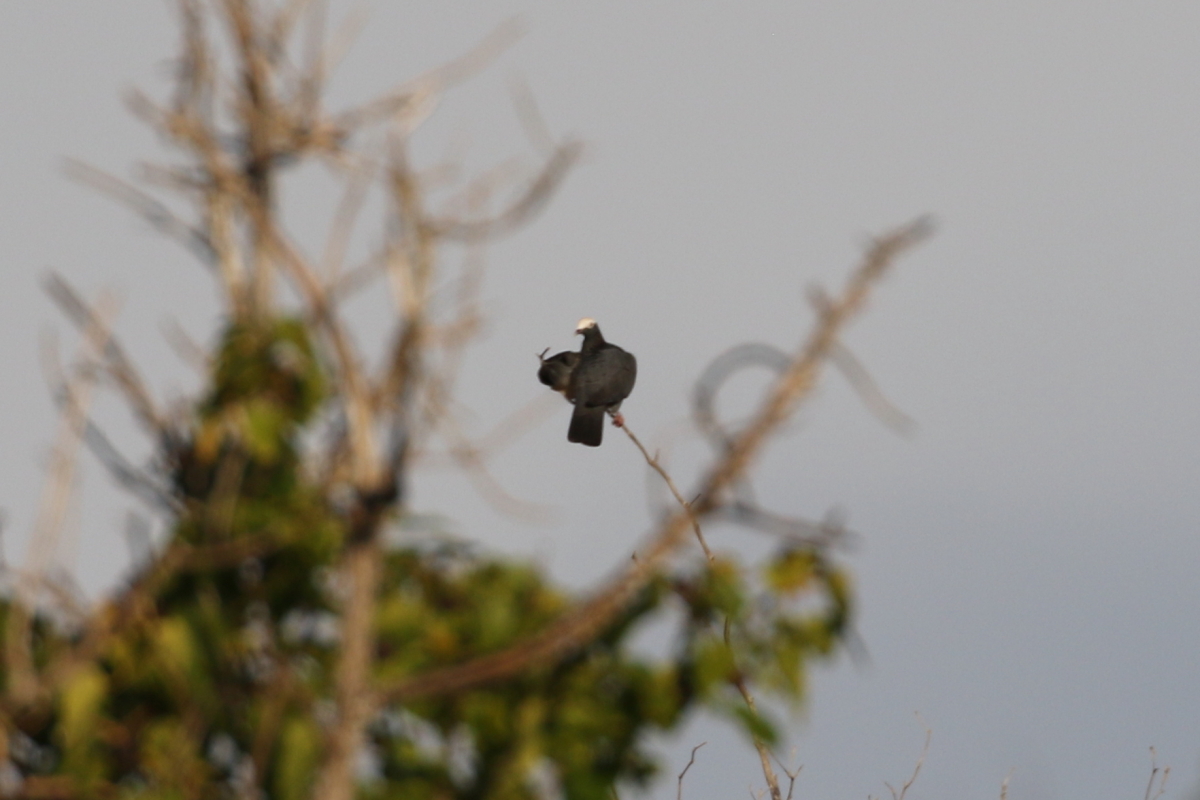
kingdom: Animalia
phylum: Chordata
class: Aves
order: Columbiformes
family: Columbidae
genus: Patagioenas
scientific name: Patagioenas leucocephala
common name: White-crowned pigeon
